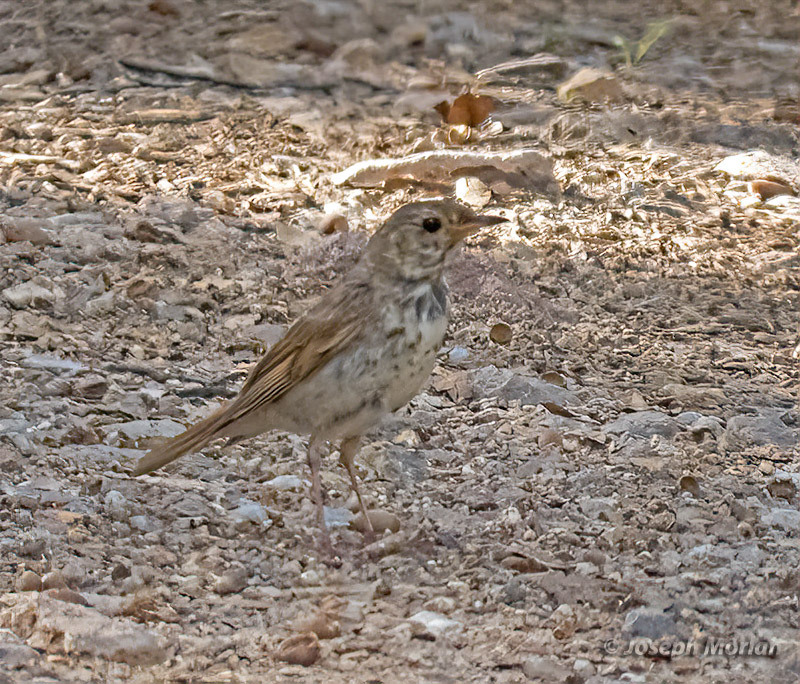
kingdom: Animalia
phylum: Chordata
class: Aves
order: Passeriformes
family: Turdidae
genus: Catharus
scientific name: Catharus guttatus
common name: Hermit thrush
